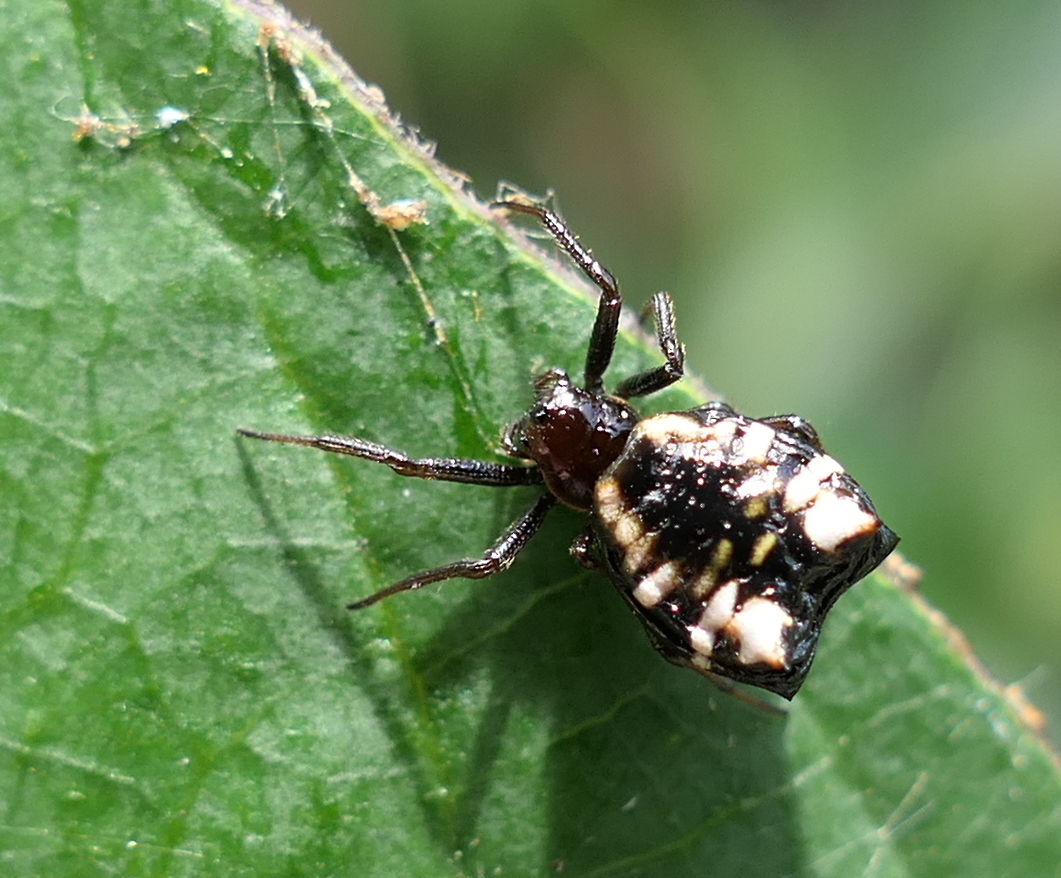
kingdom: Animalia
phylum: Arthropoda
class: Arachnida
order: Araneae
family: Araneidae
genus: Micrathena
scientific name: Micrathena patruelis
